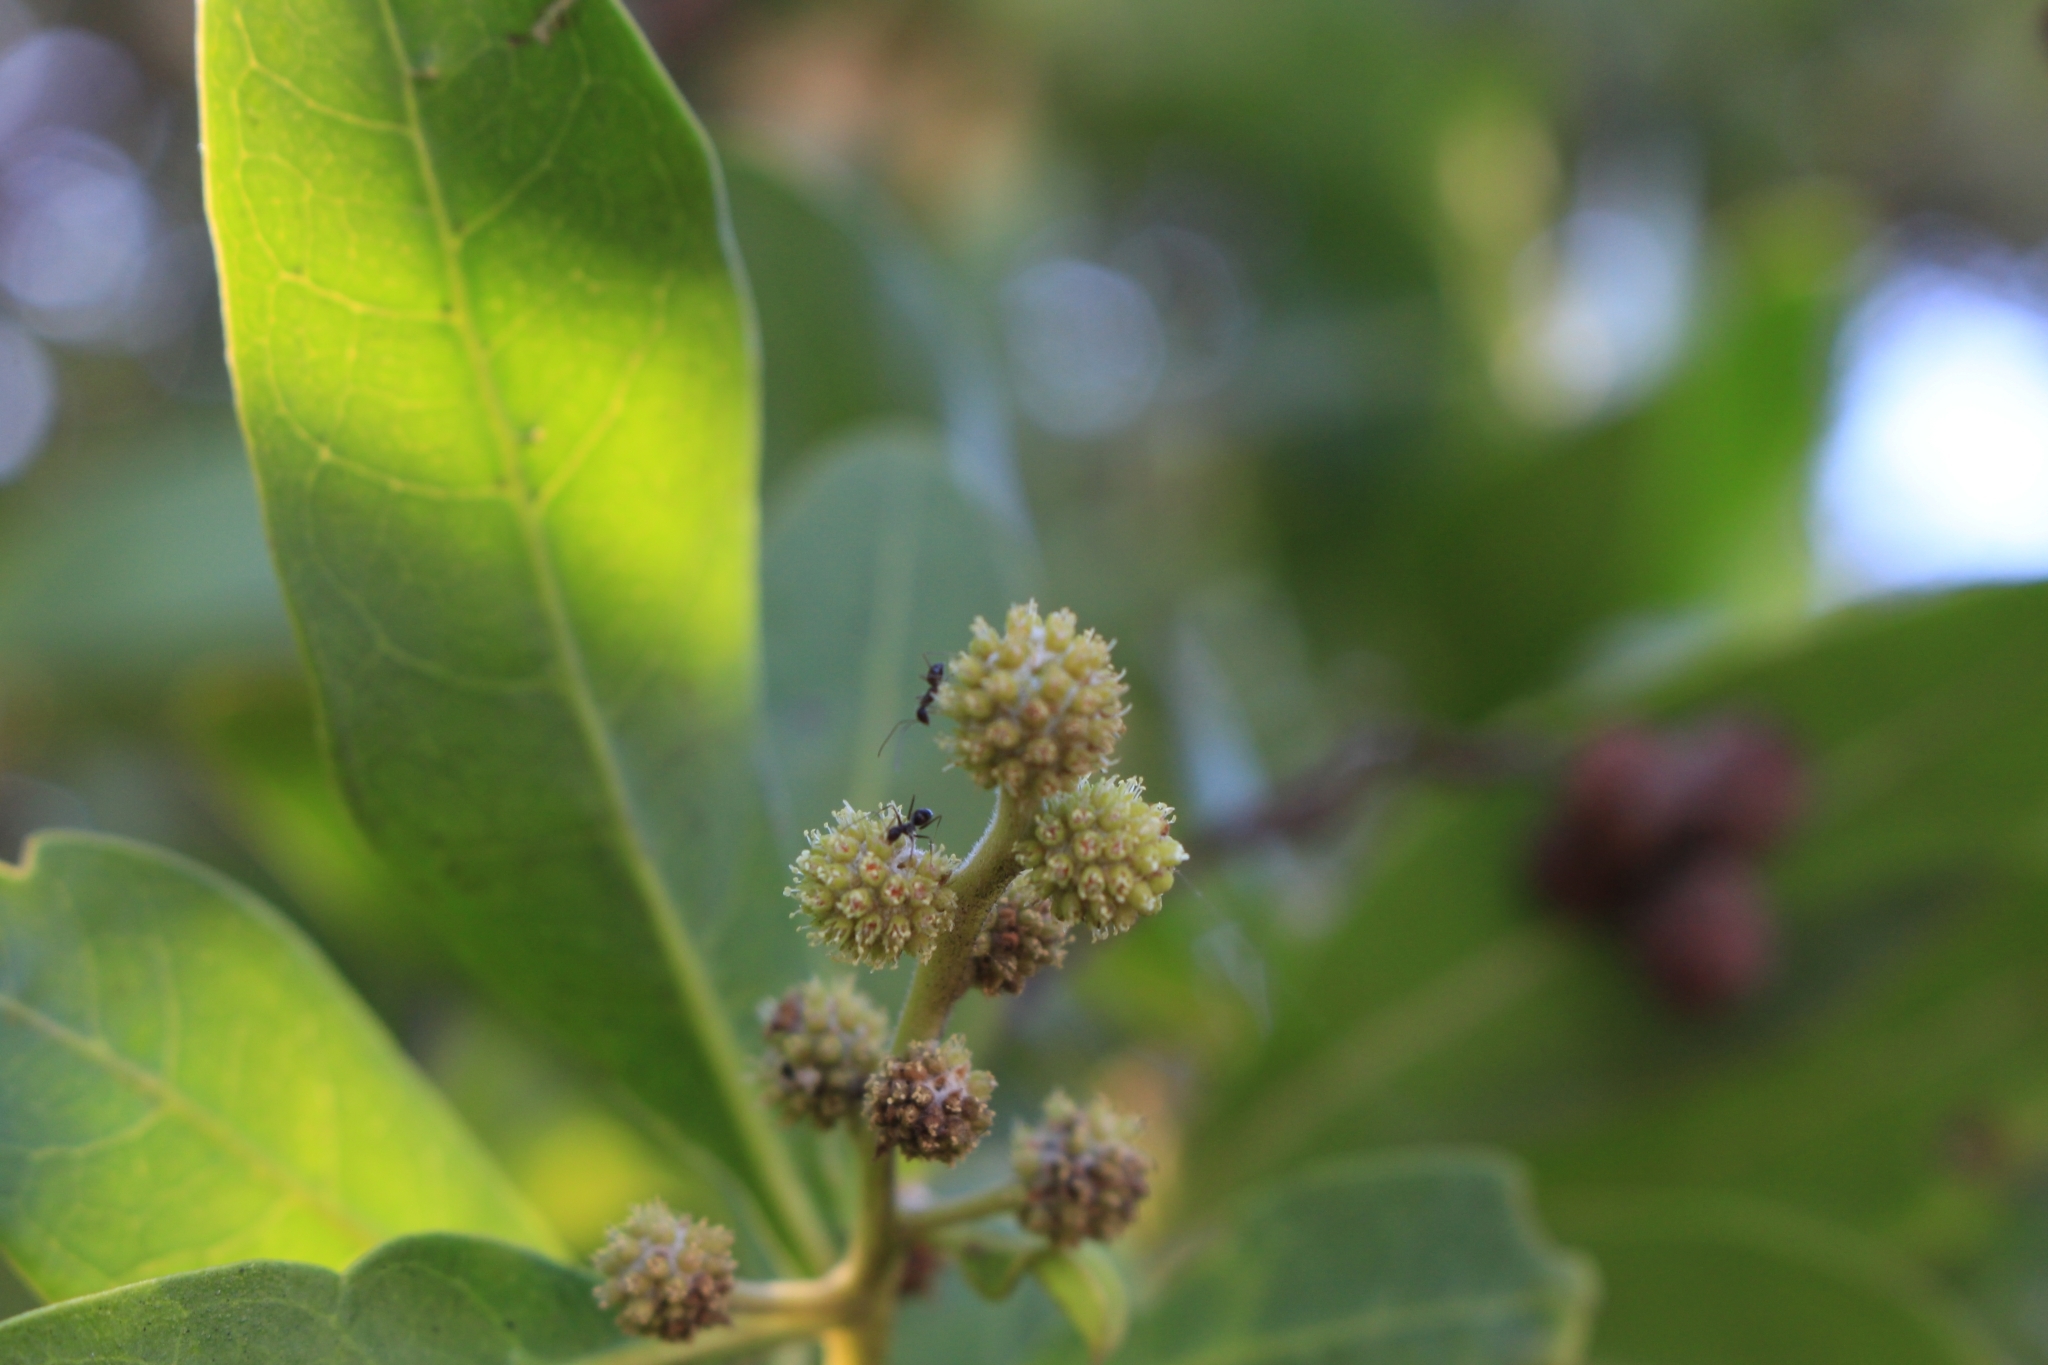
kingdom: Plantae
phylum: Tracheophyta
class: Magnoliopsida
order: Myrtales
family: Combretaceae
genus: Conocarpus
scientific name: Conocarpus erectus
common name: Button mangrove
